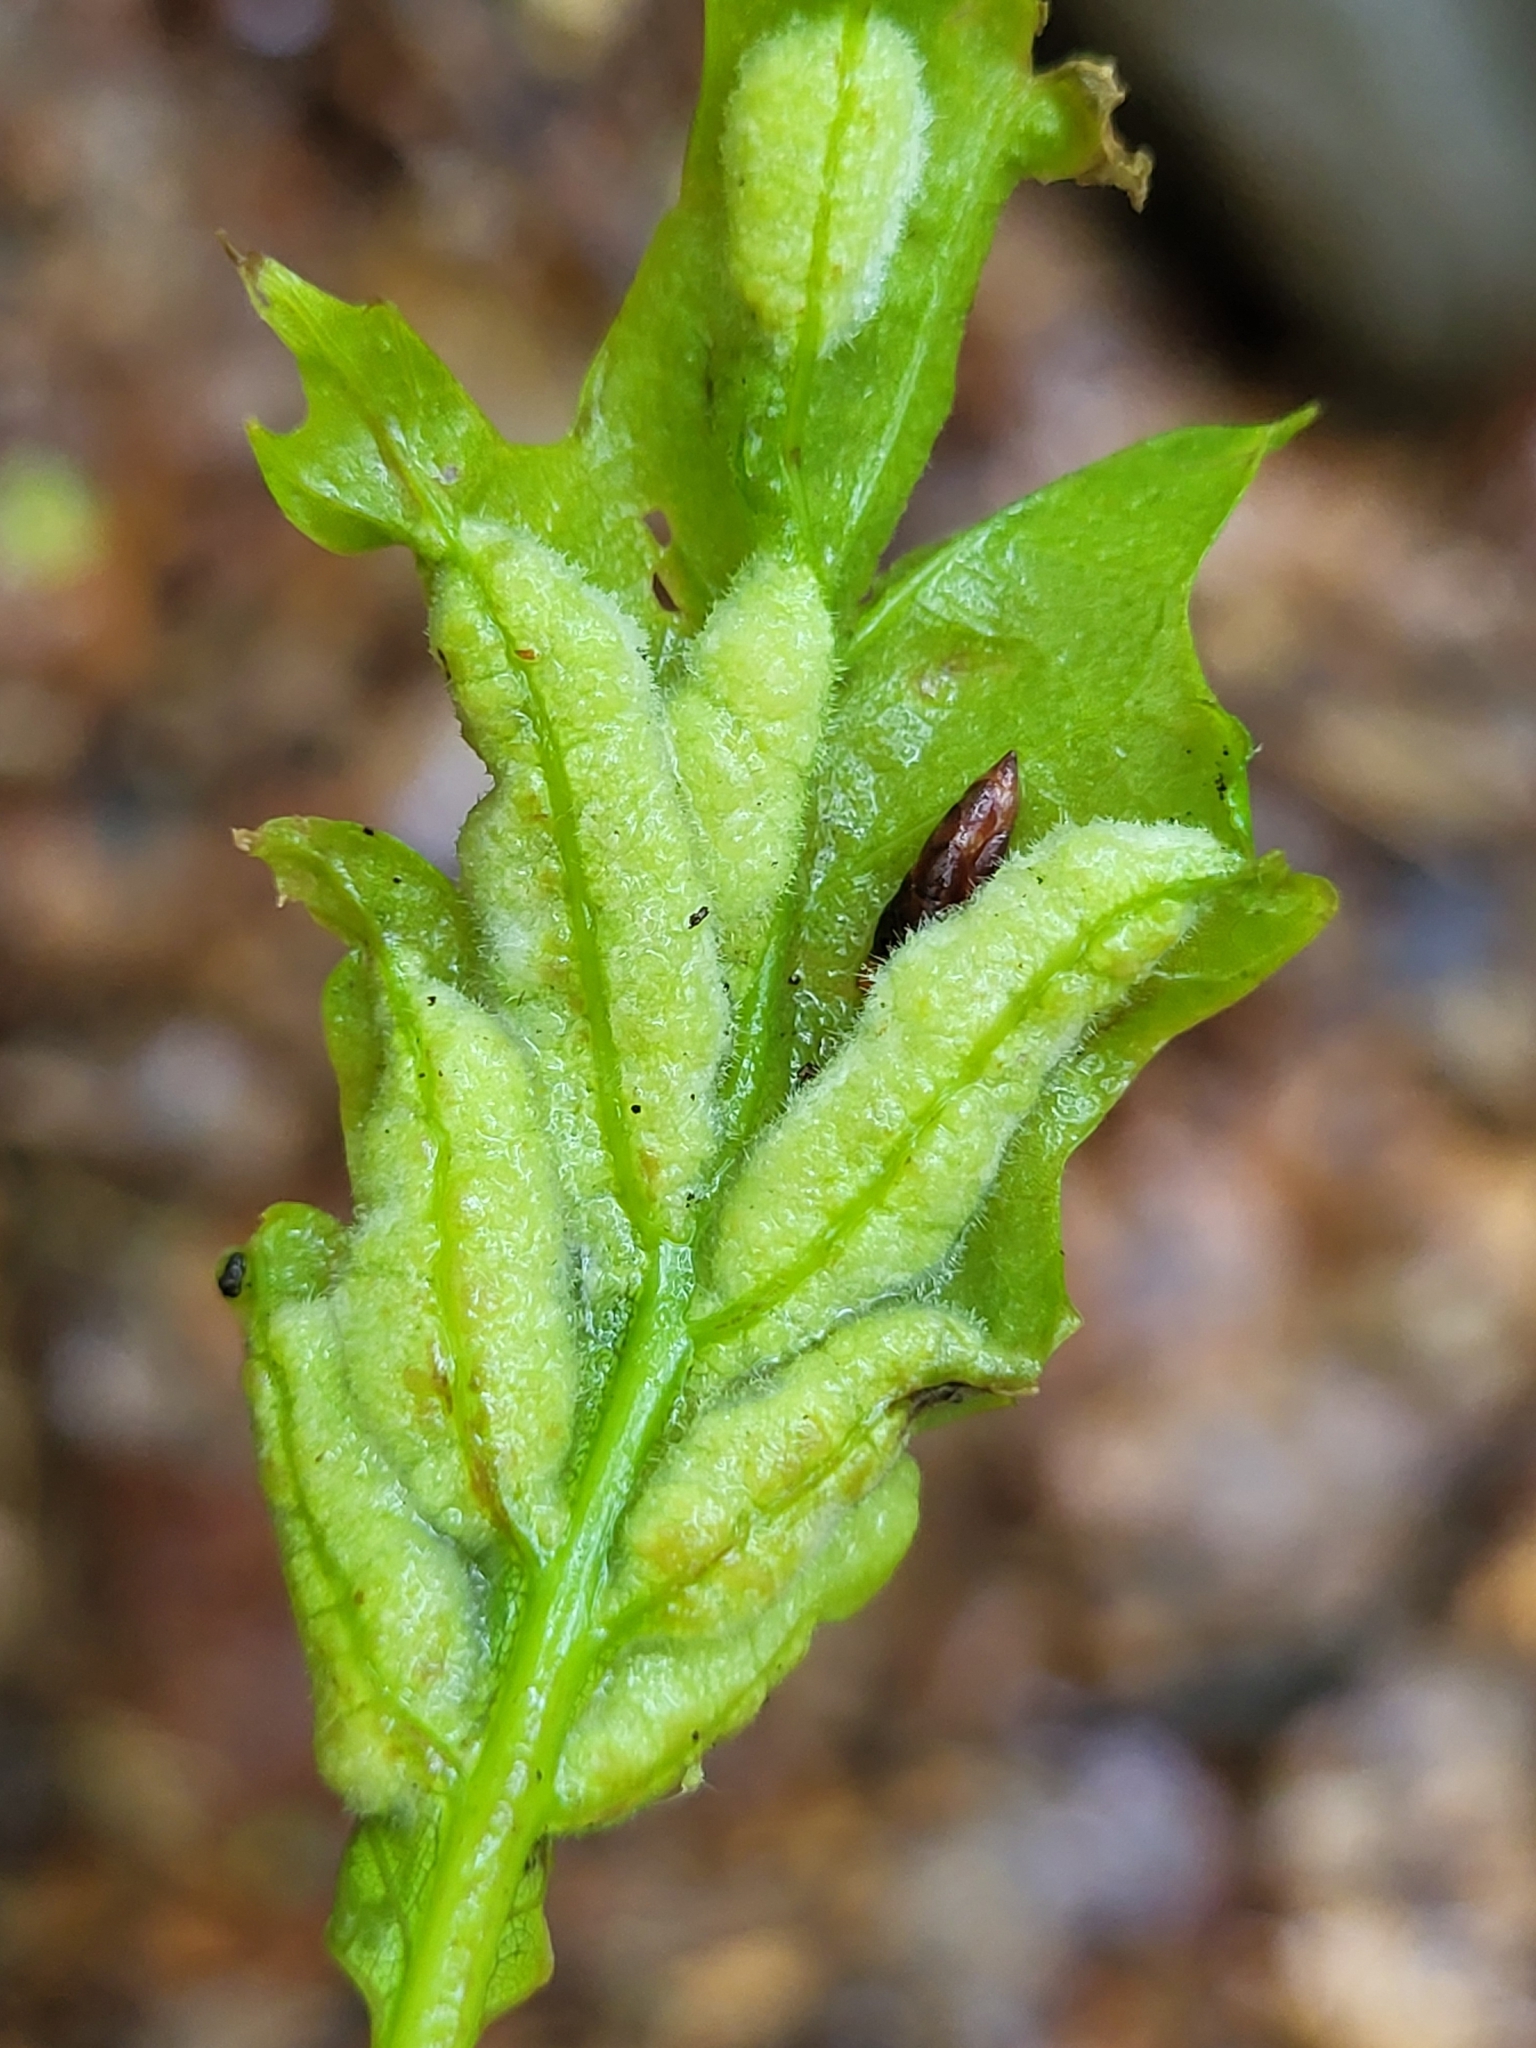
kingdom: Animalia
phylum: Arthropoda
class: Insecta
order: Diptera
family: Cecidomyiidae
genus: Macrodiplosis
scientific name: Macrodiplosis niveipila
